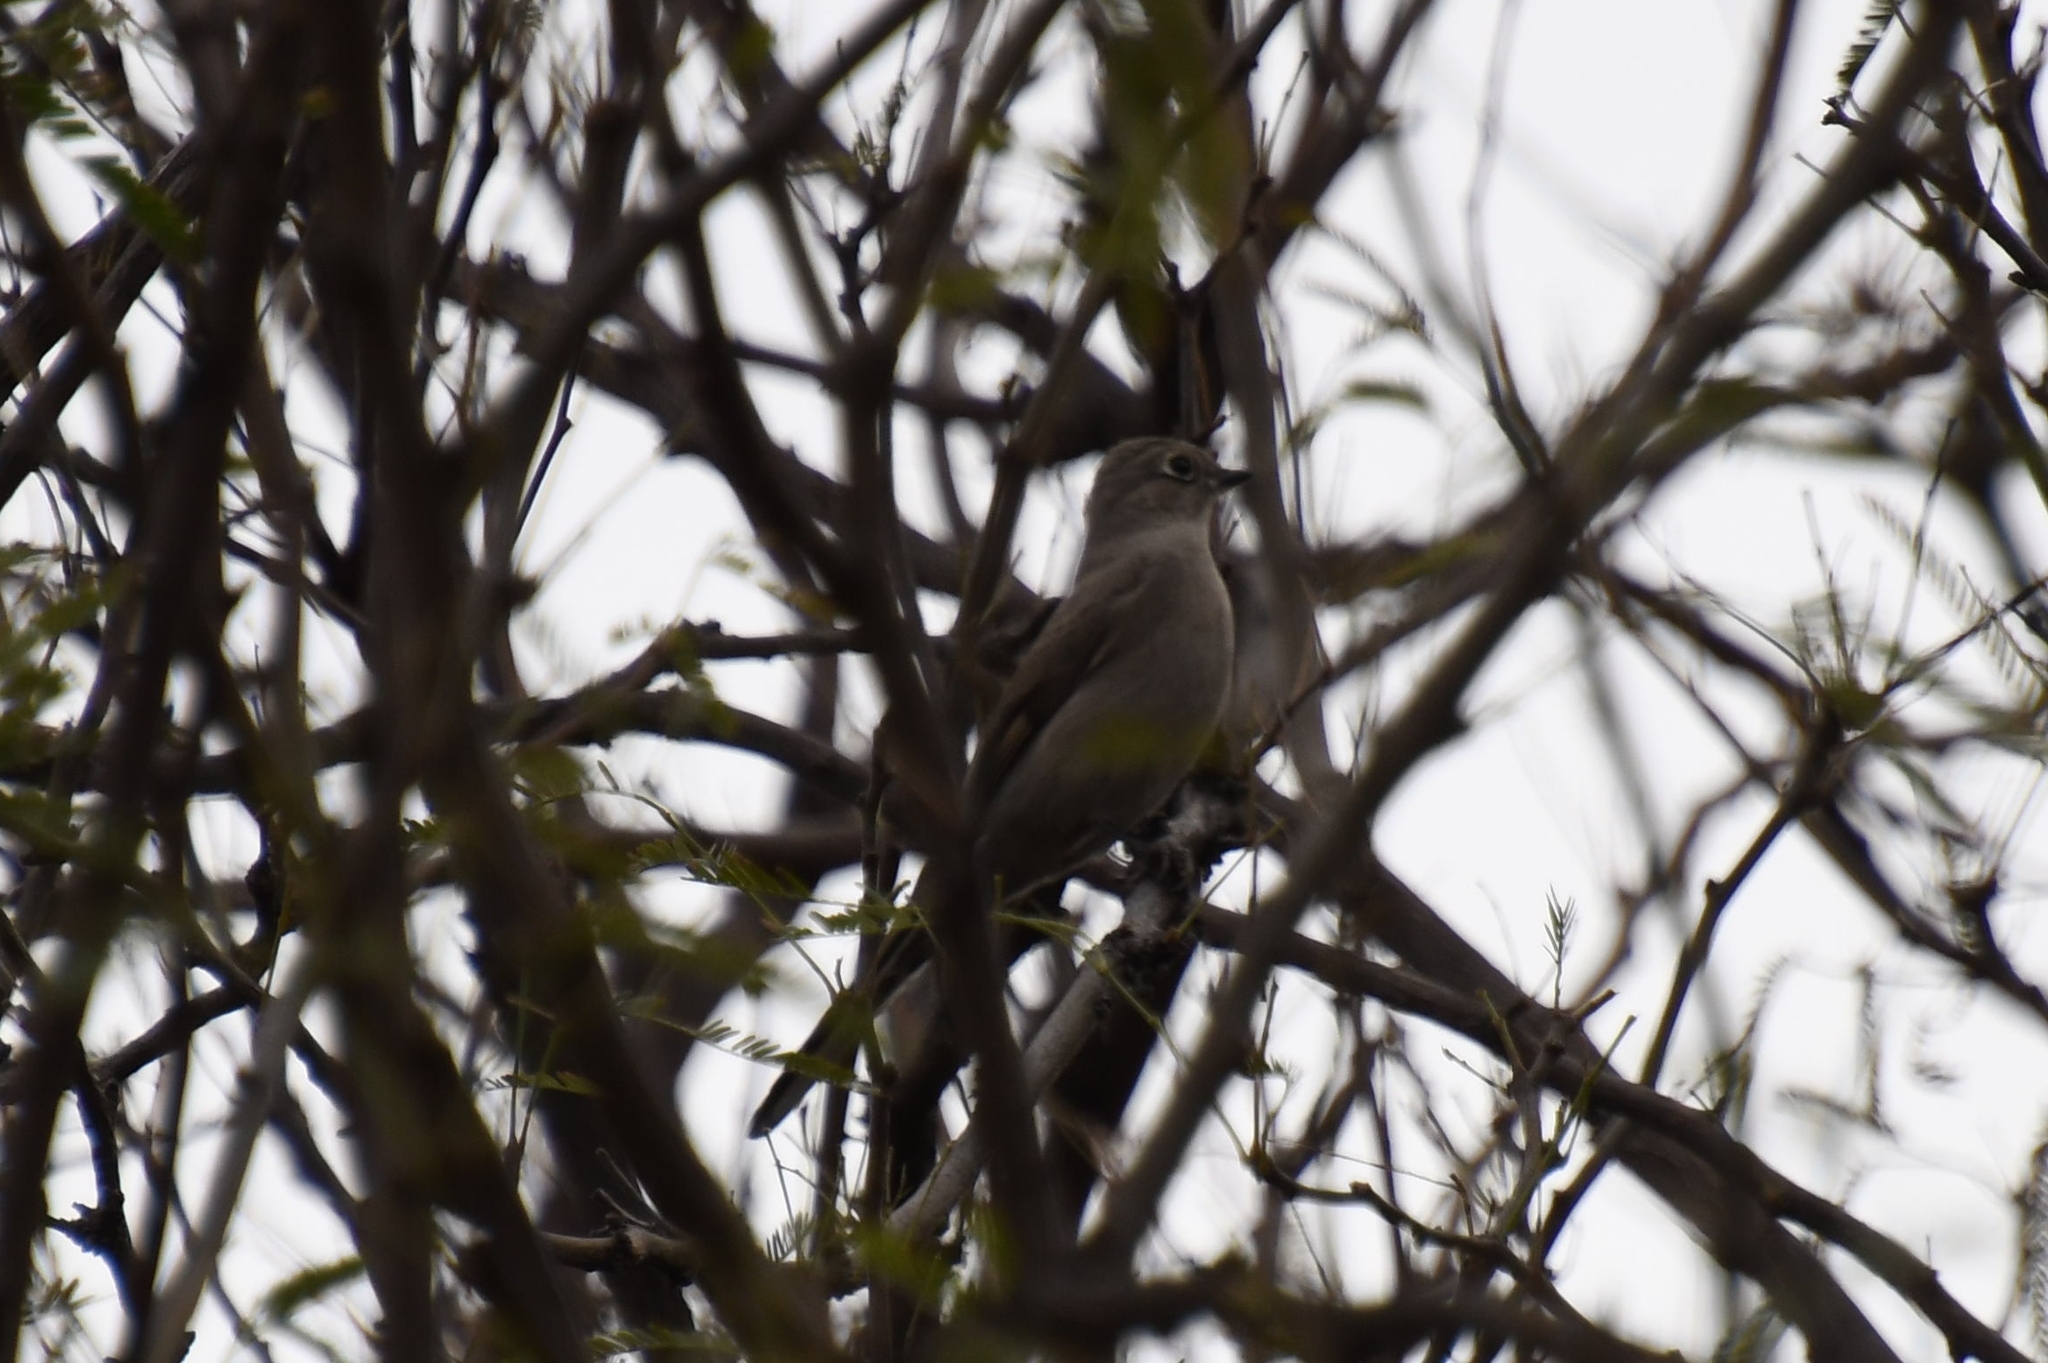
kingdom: Animalia
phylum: Chordata
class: Aves
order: Passeriformes
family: Turdidae
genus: Myadestes
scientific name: Myadestes townsendi
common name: Townsend's solitaire
